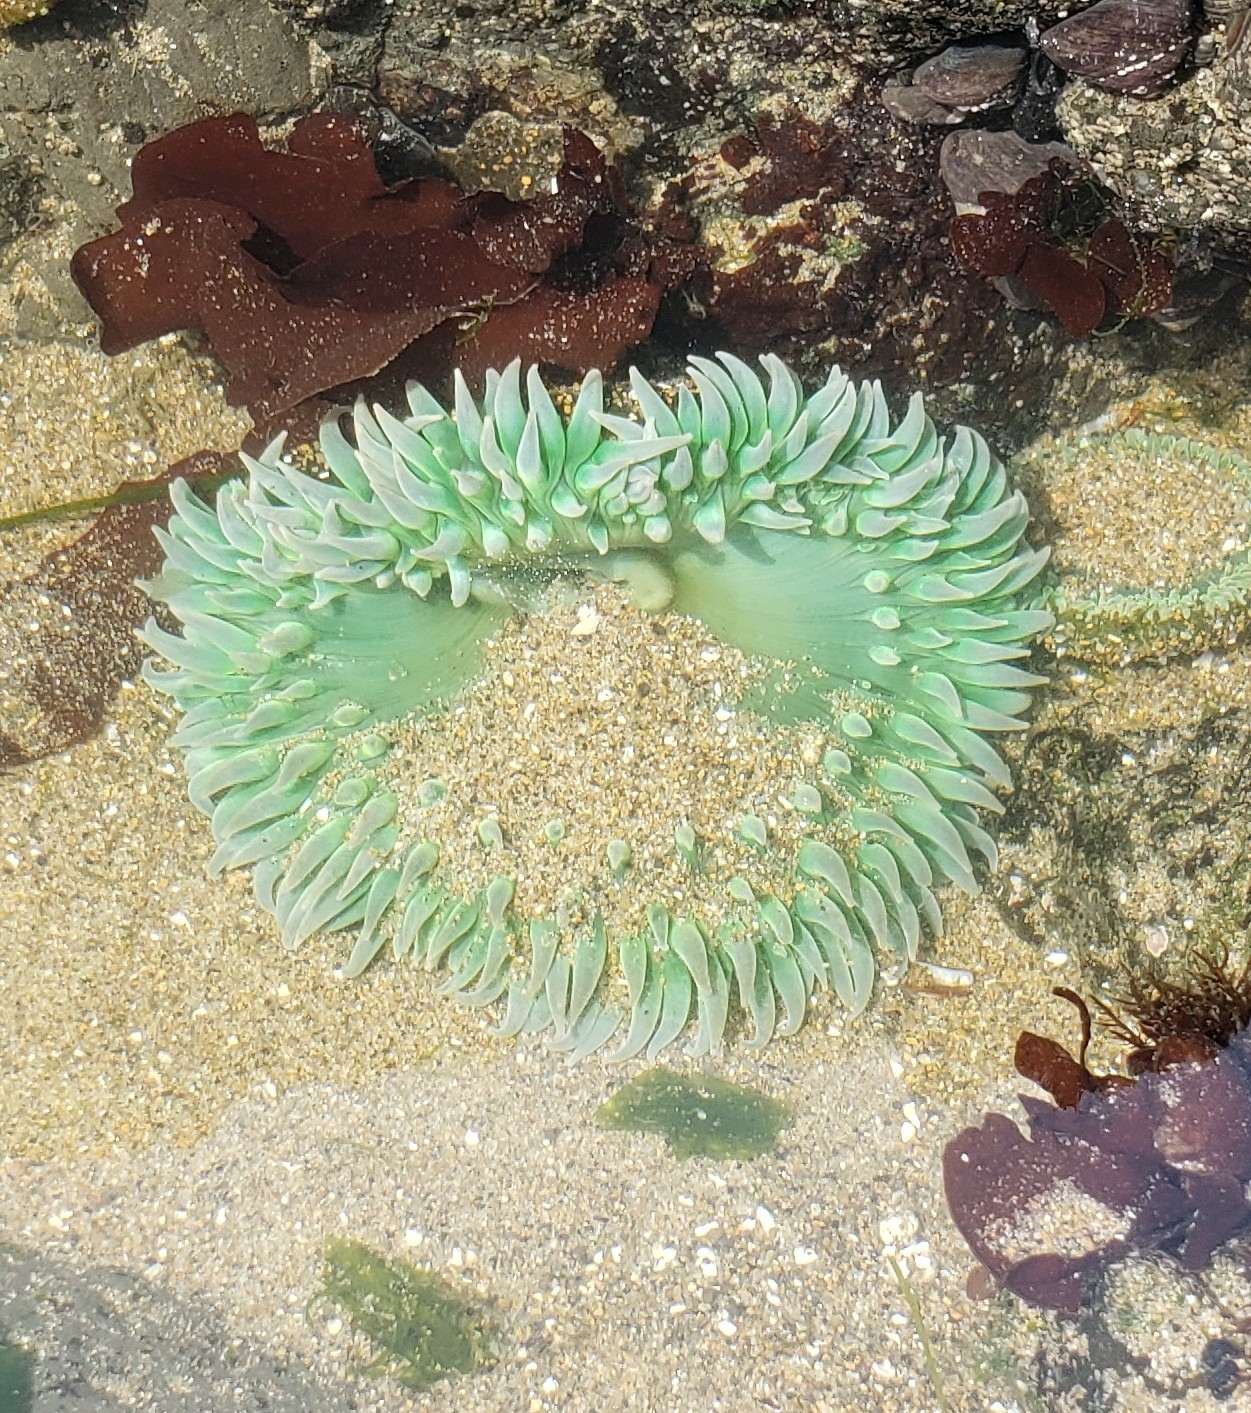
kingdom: Animalia
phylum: Cnidaria
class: Anthozoa
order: Actiniaria
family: Actiniidae
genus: Anthopleura
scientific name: Anthopleura xanthogrammica
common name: Giant green anemone
